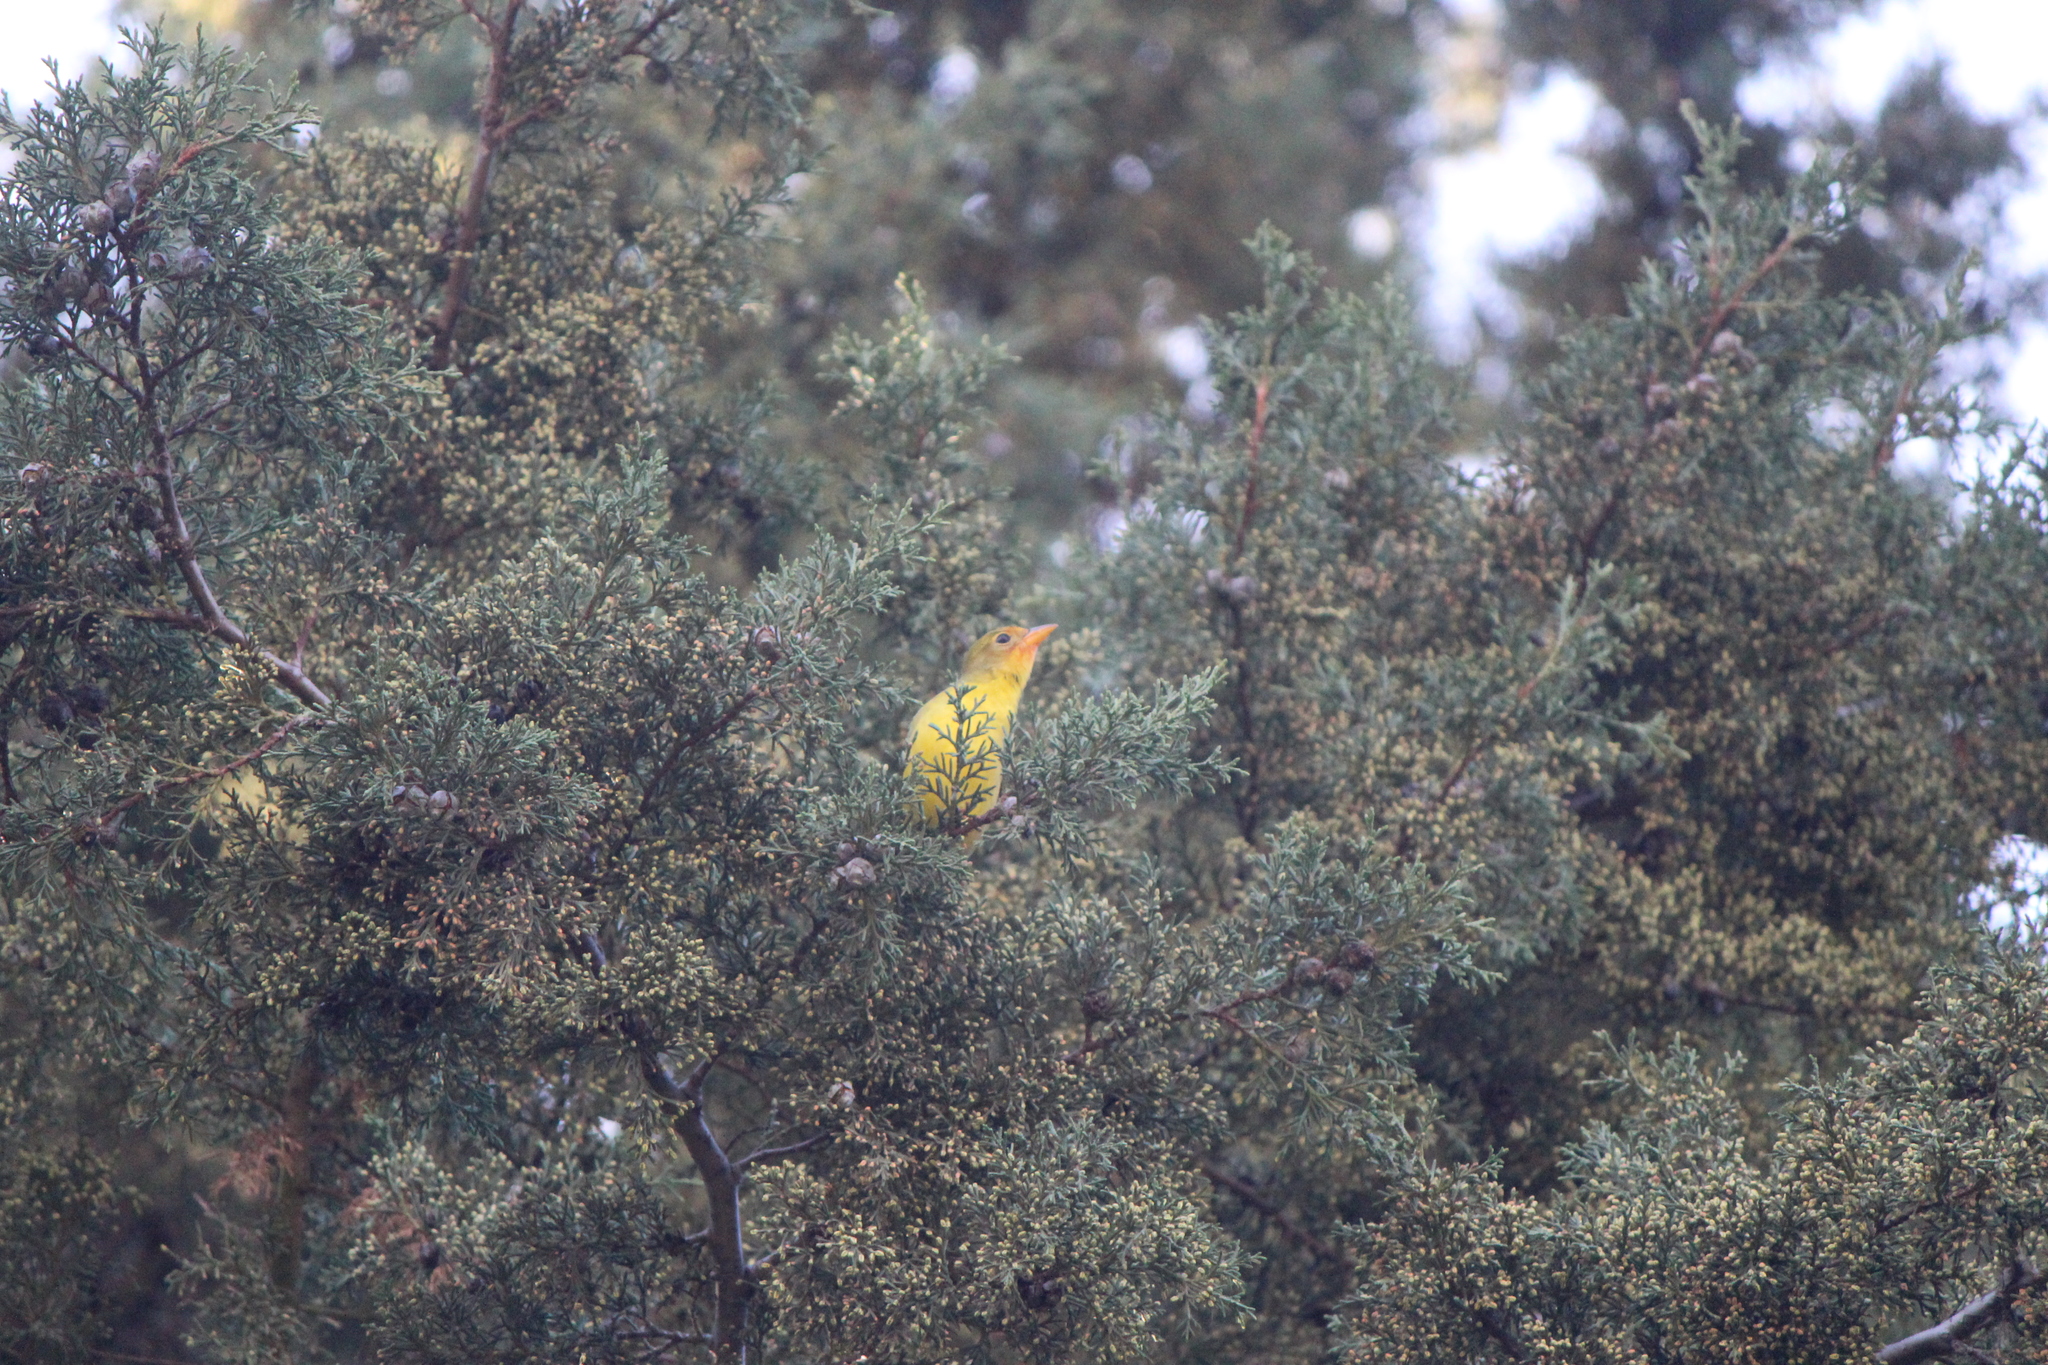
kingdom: Animalia
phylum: Chordata
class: Aves
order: Passeriformes
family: Cardinalidae
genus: Piranga
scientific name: Piranga ludoviciana
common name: Western tanager
